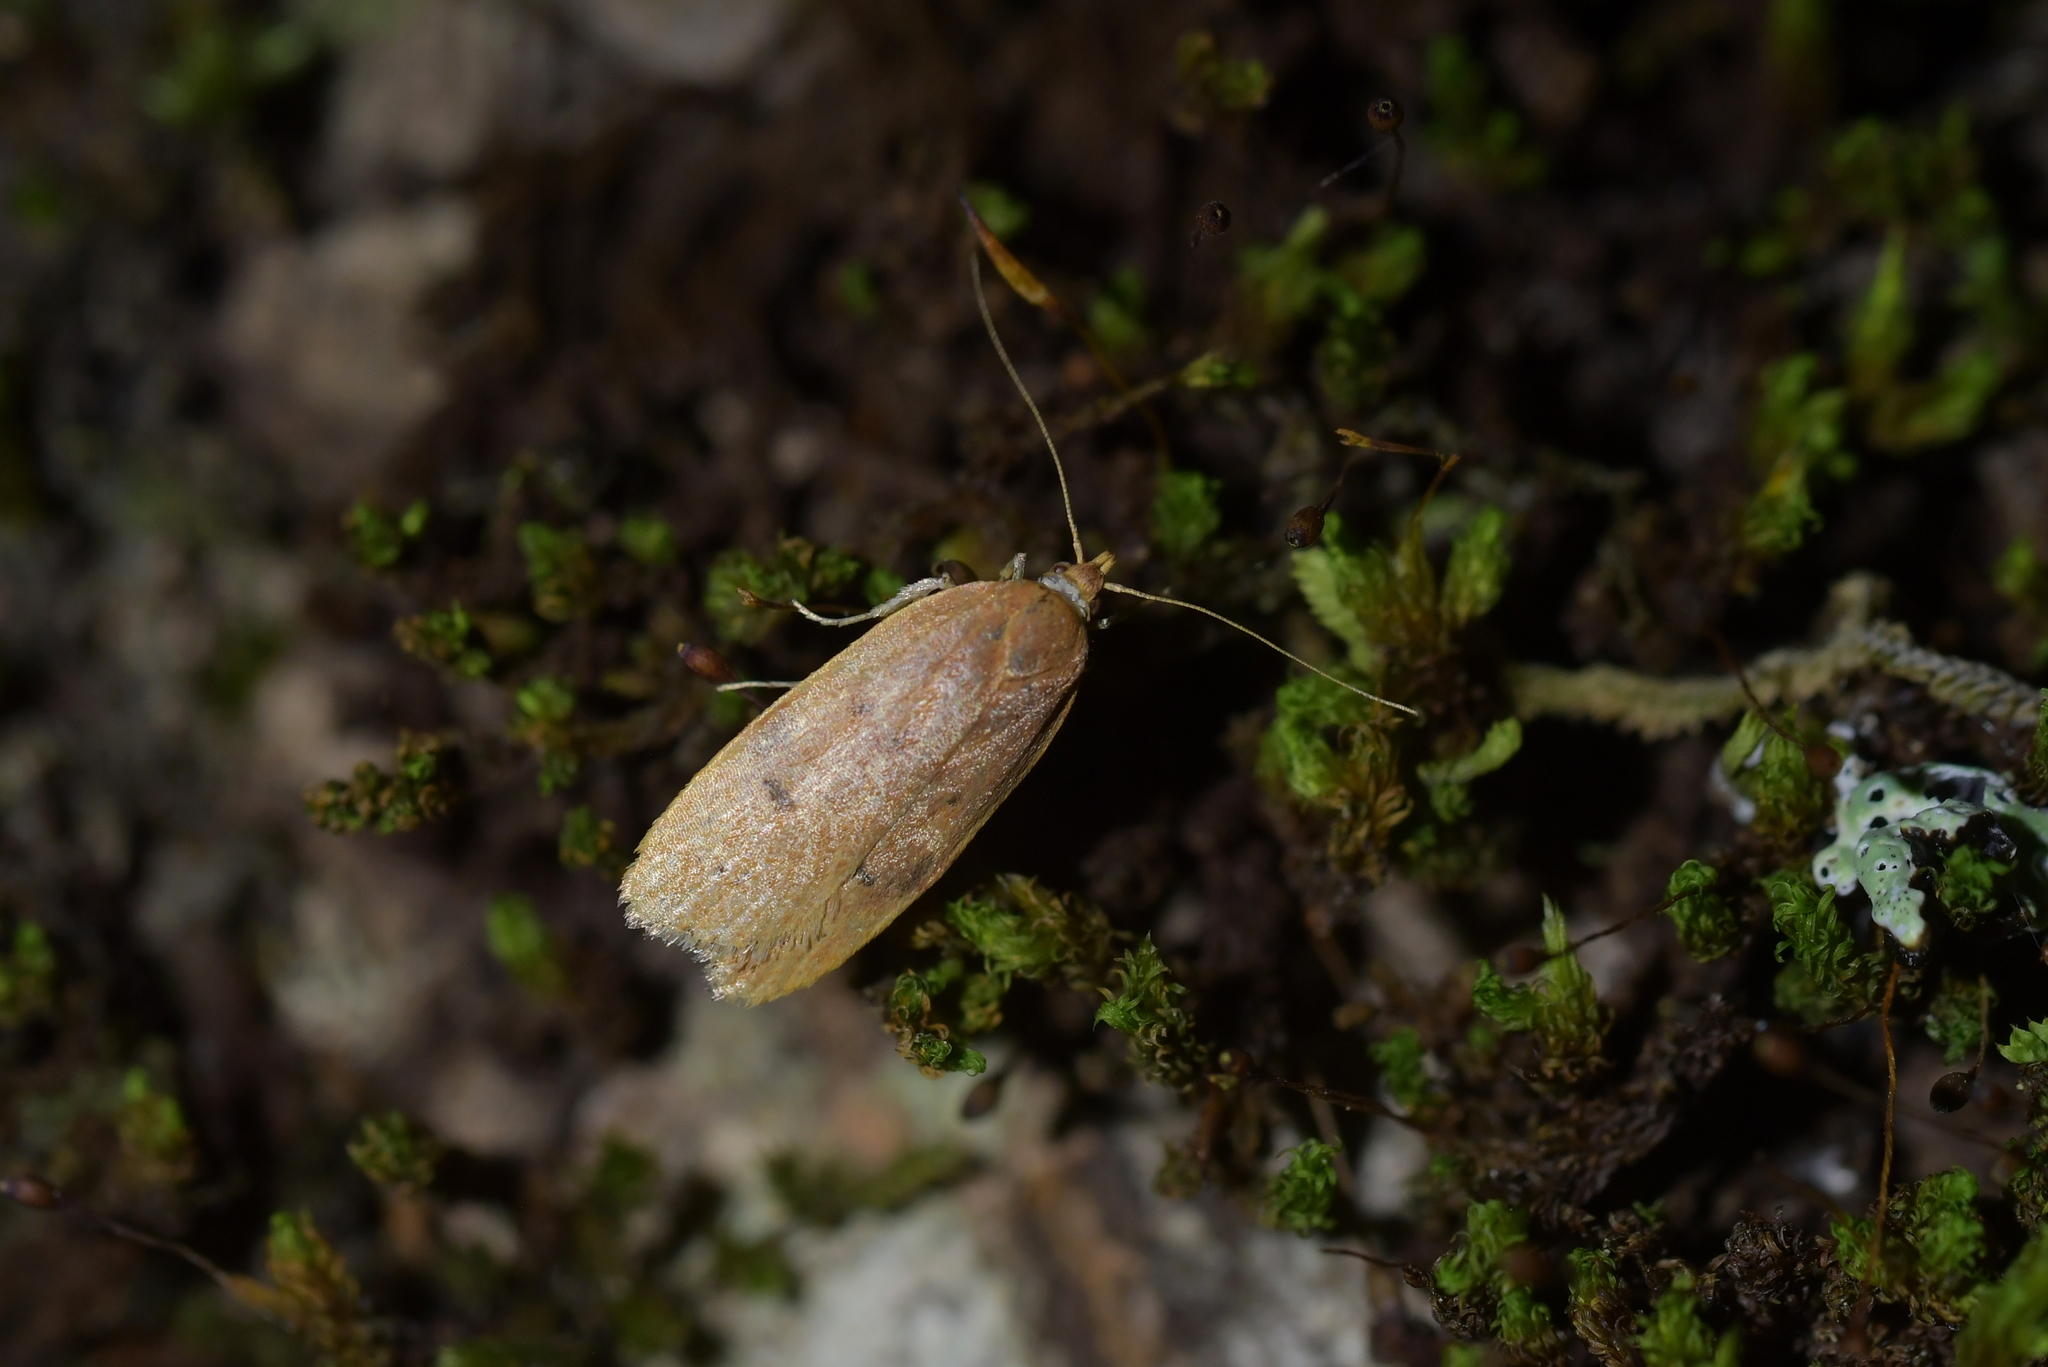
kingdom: Animalia
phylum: Arthropoda
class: Insecta
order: Lepidoptera
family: Depressariidae
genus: Phaeosaces
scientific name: Phaeosaces coarctatella
